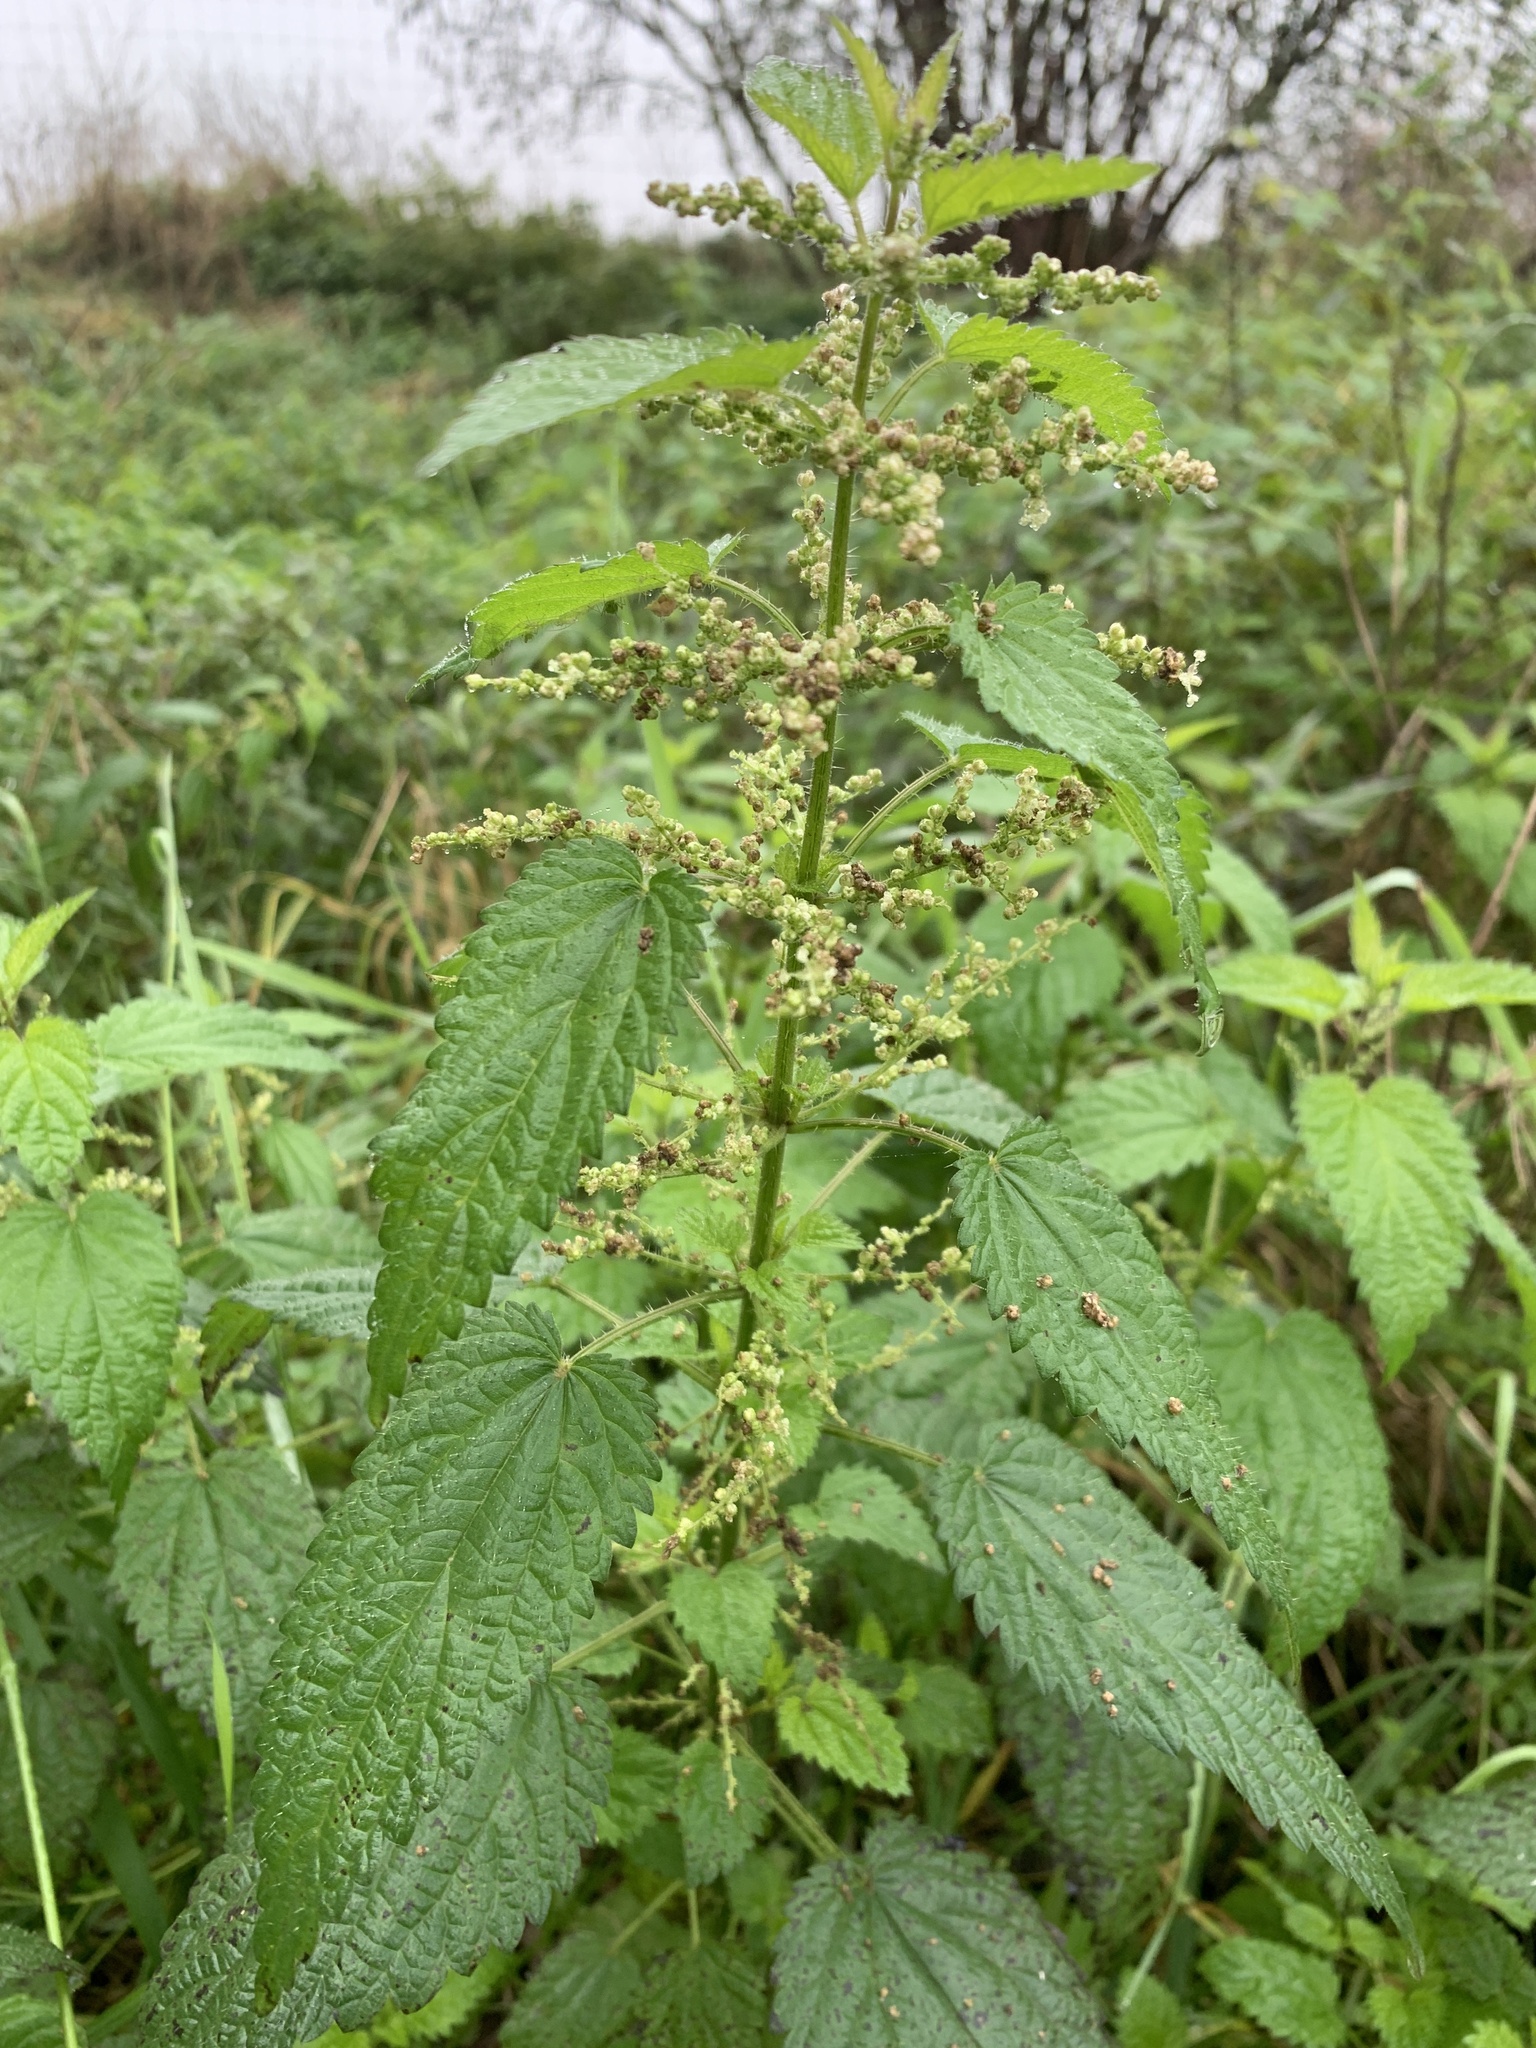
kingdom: Plantae
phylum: Tracheophyta
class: Magnoliopsida
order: Rosales
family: Urticaceae
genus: Urtica
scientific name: Urtica dioica
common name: Common nettle
